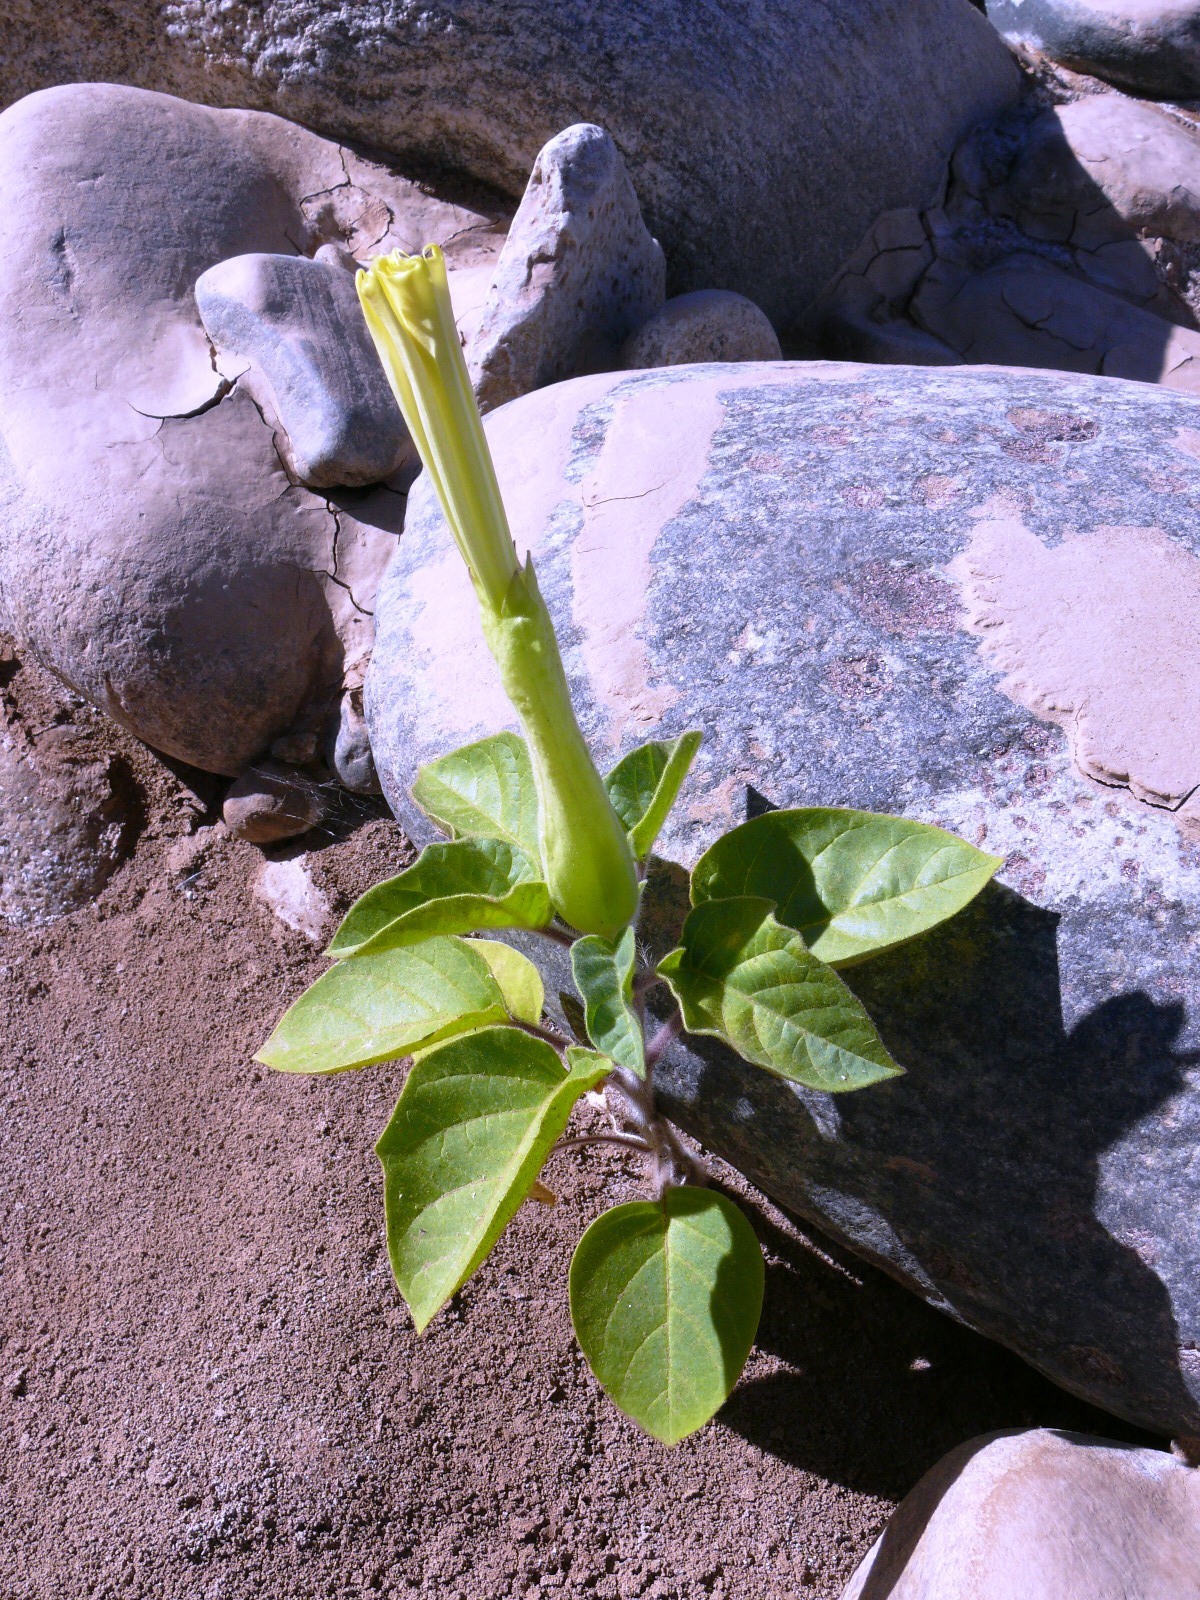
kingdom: Plantae
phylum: Tracheophyta
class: Magnoliopsida
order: Solanales
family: Solanaceae
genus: Datura
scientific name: Datura innoxia
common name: Downy thorn-apple
